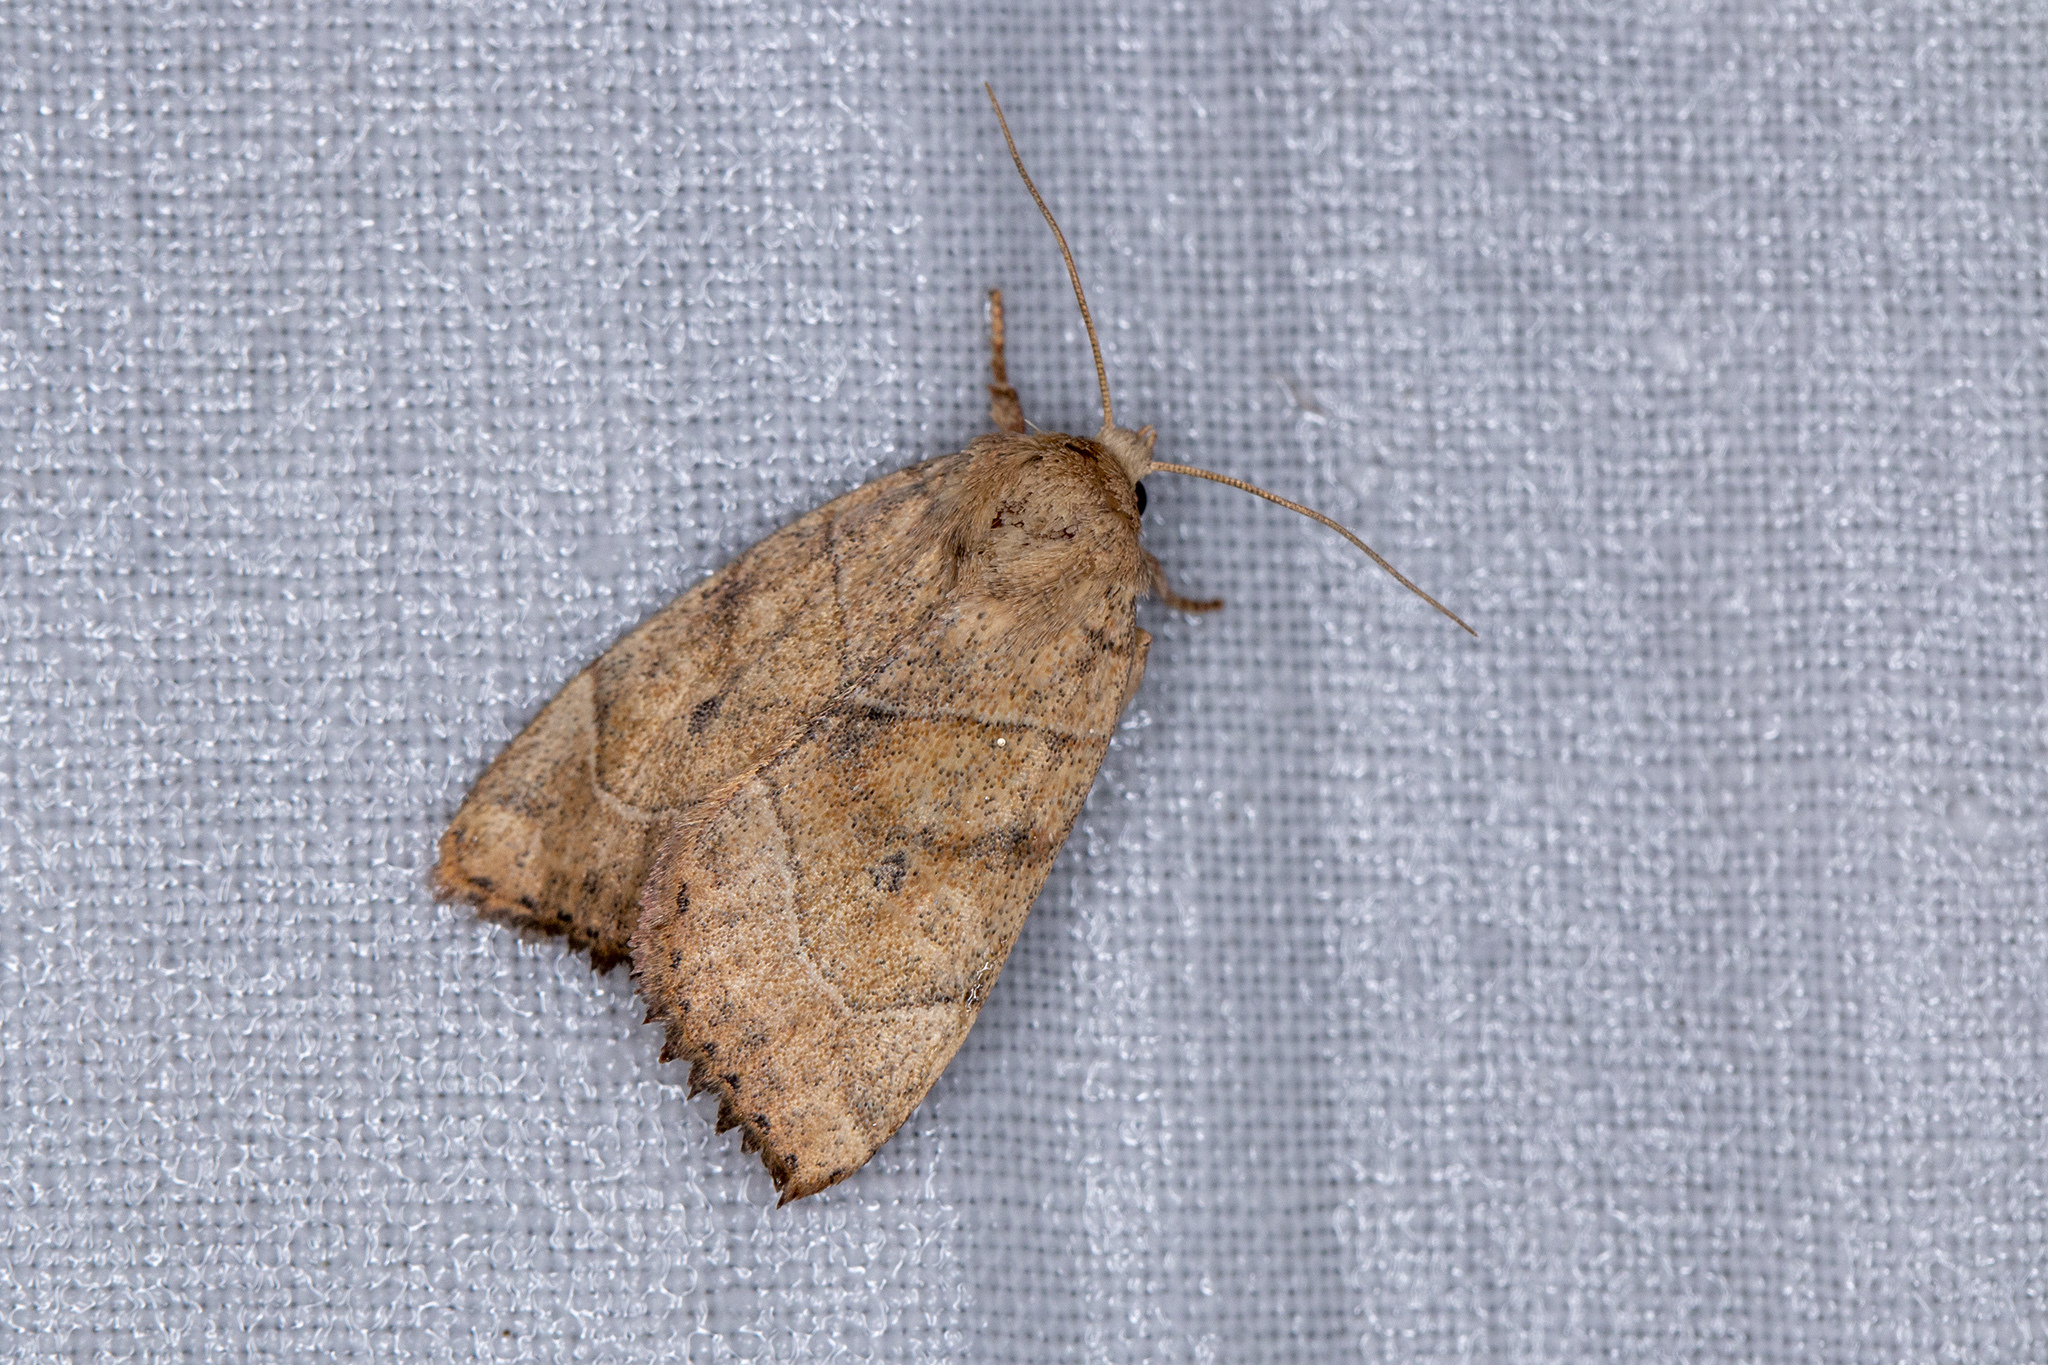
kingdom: Animalia
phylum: Arthropoda
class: Insecta
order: Lepidoptera
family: Noctuidae
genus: Cosmia
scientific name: Cosmia trapezina
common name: Dun-bar
